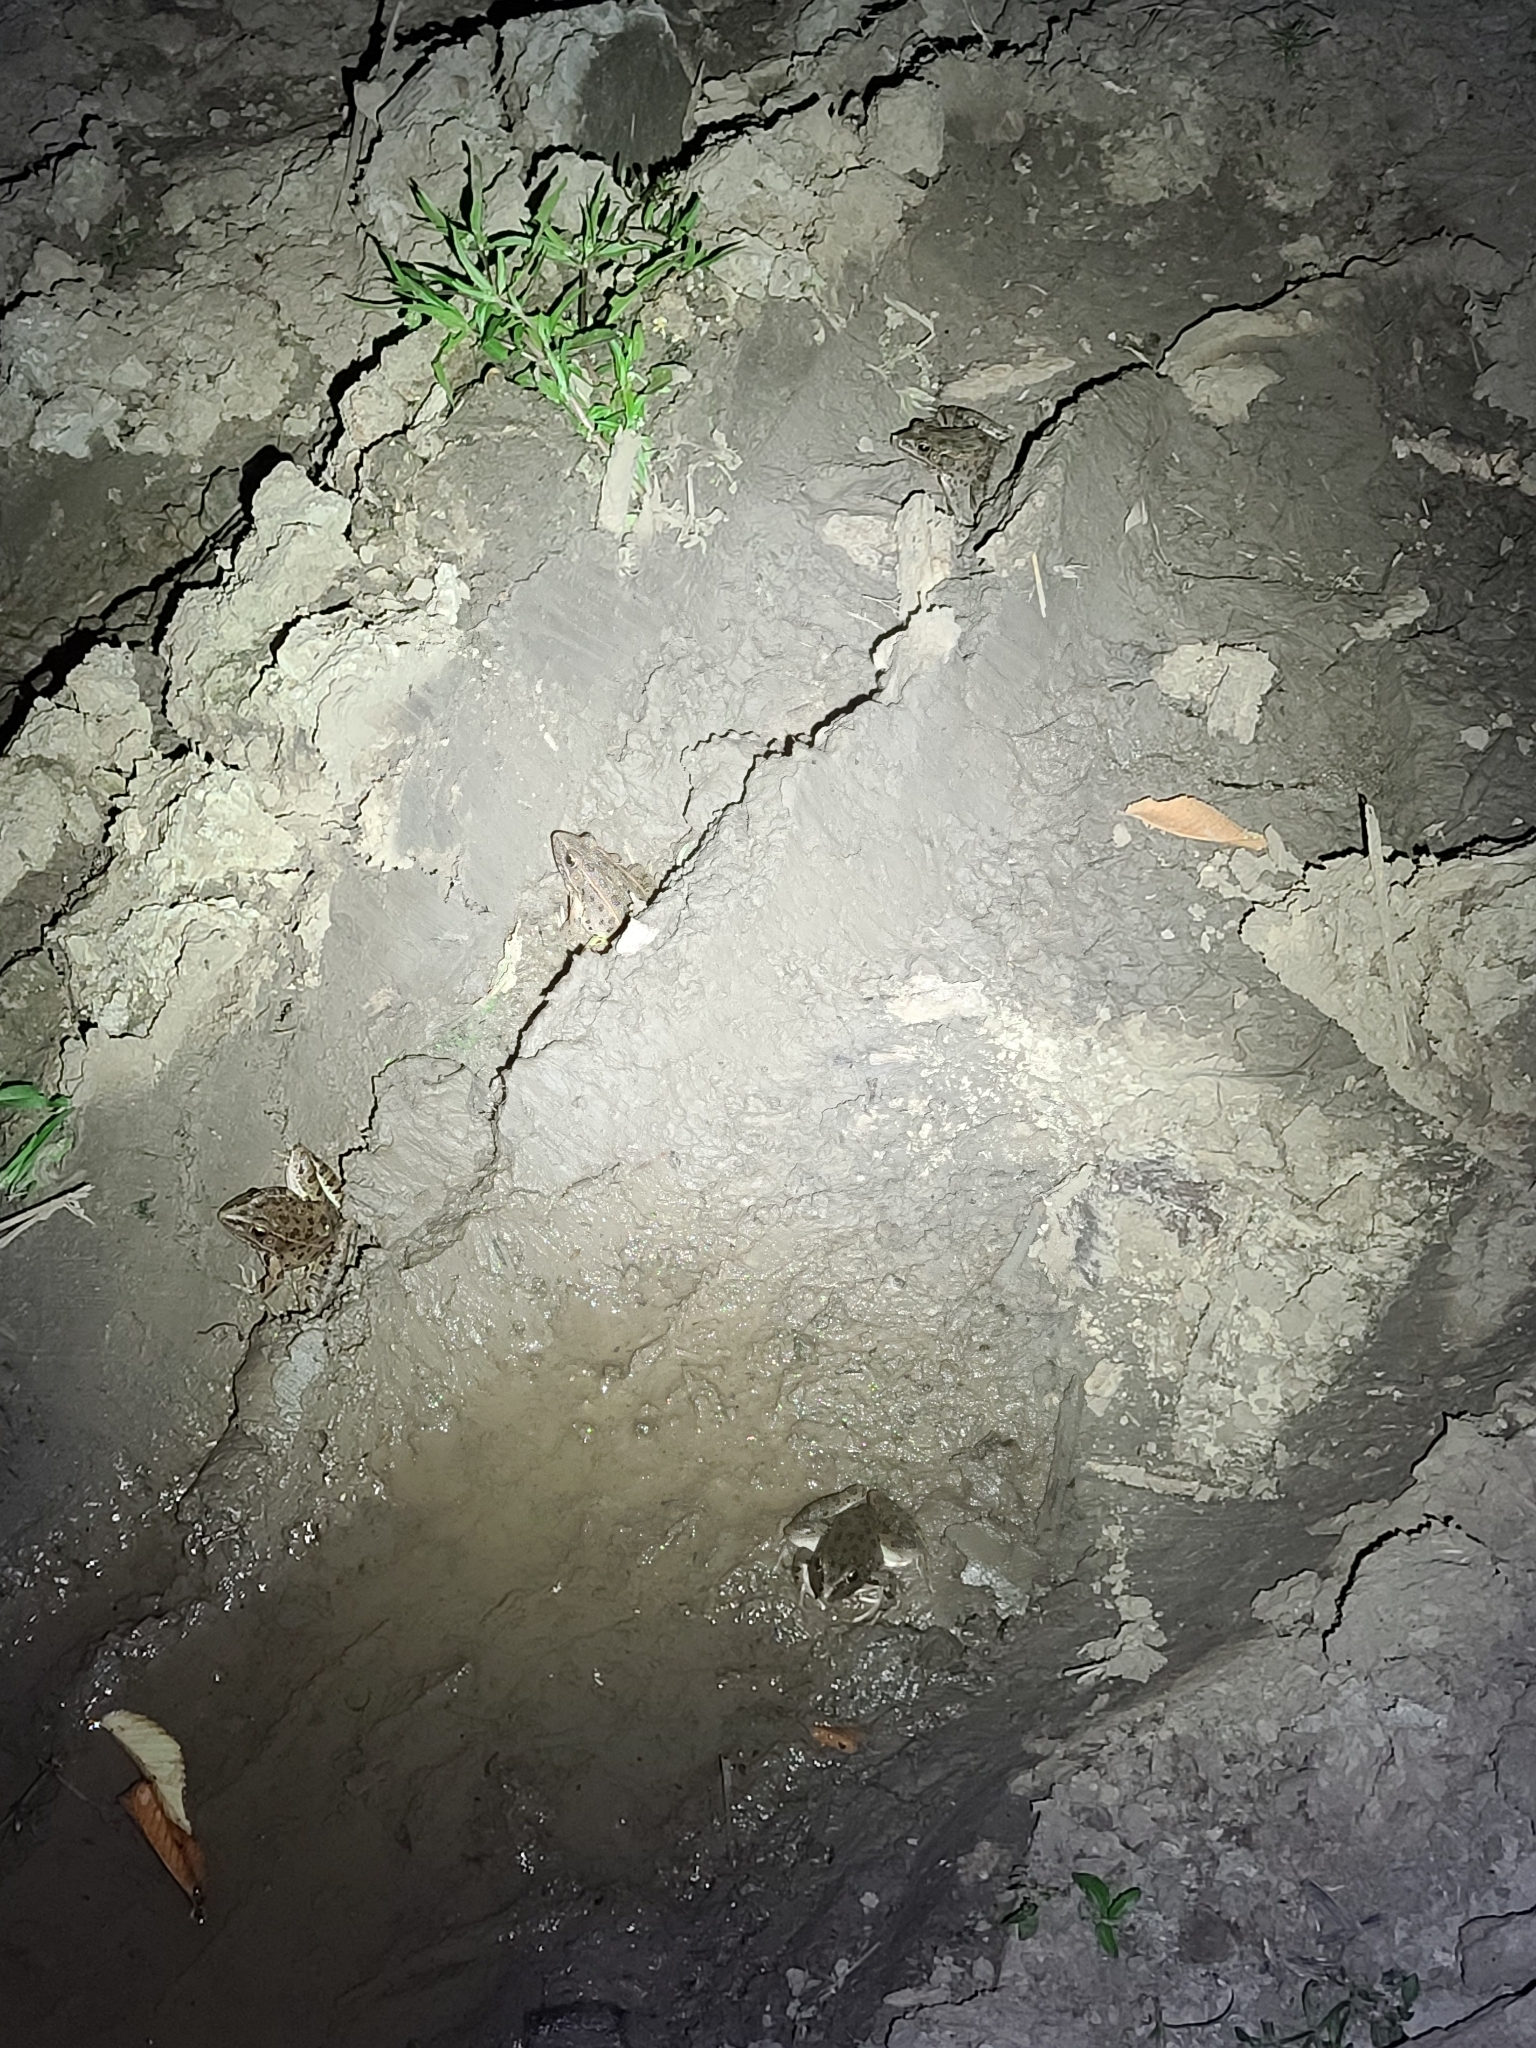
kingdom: Animalia
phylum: Chordata
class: Amphibia
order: Anura
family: Ranidae
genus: Lithobates
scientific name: Lithobates blairi
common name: Plains leopard frog
